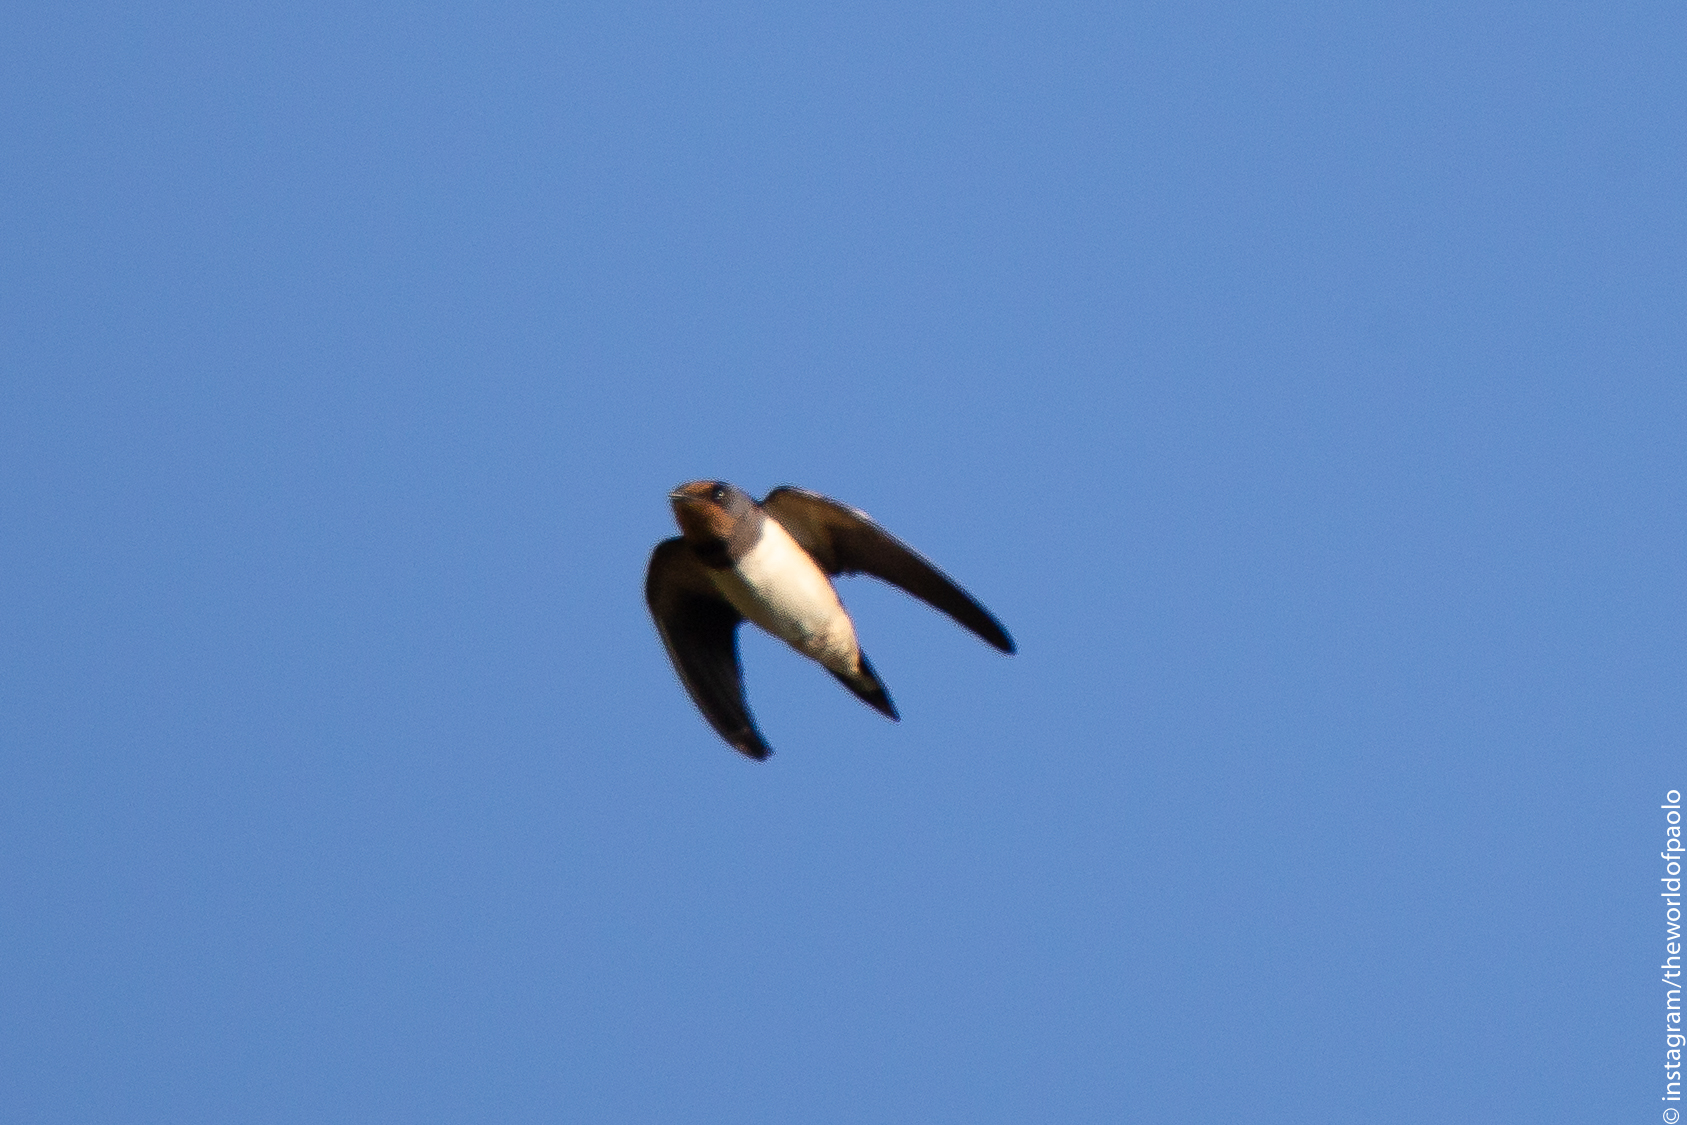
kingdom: Animalia
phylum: Chordata
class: Aves
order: Passeriformes
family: Hirundinidae
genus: Hirundo
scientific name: Hirundo rustica
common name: Barn swallow
